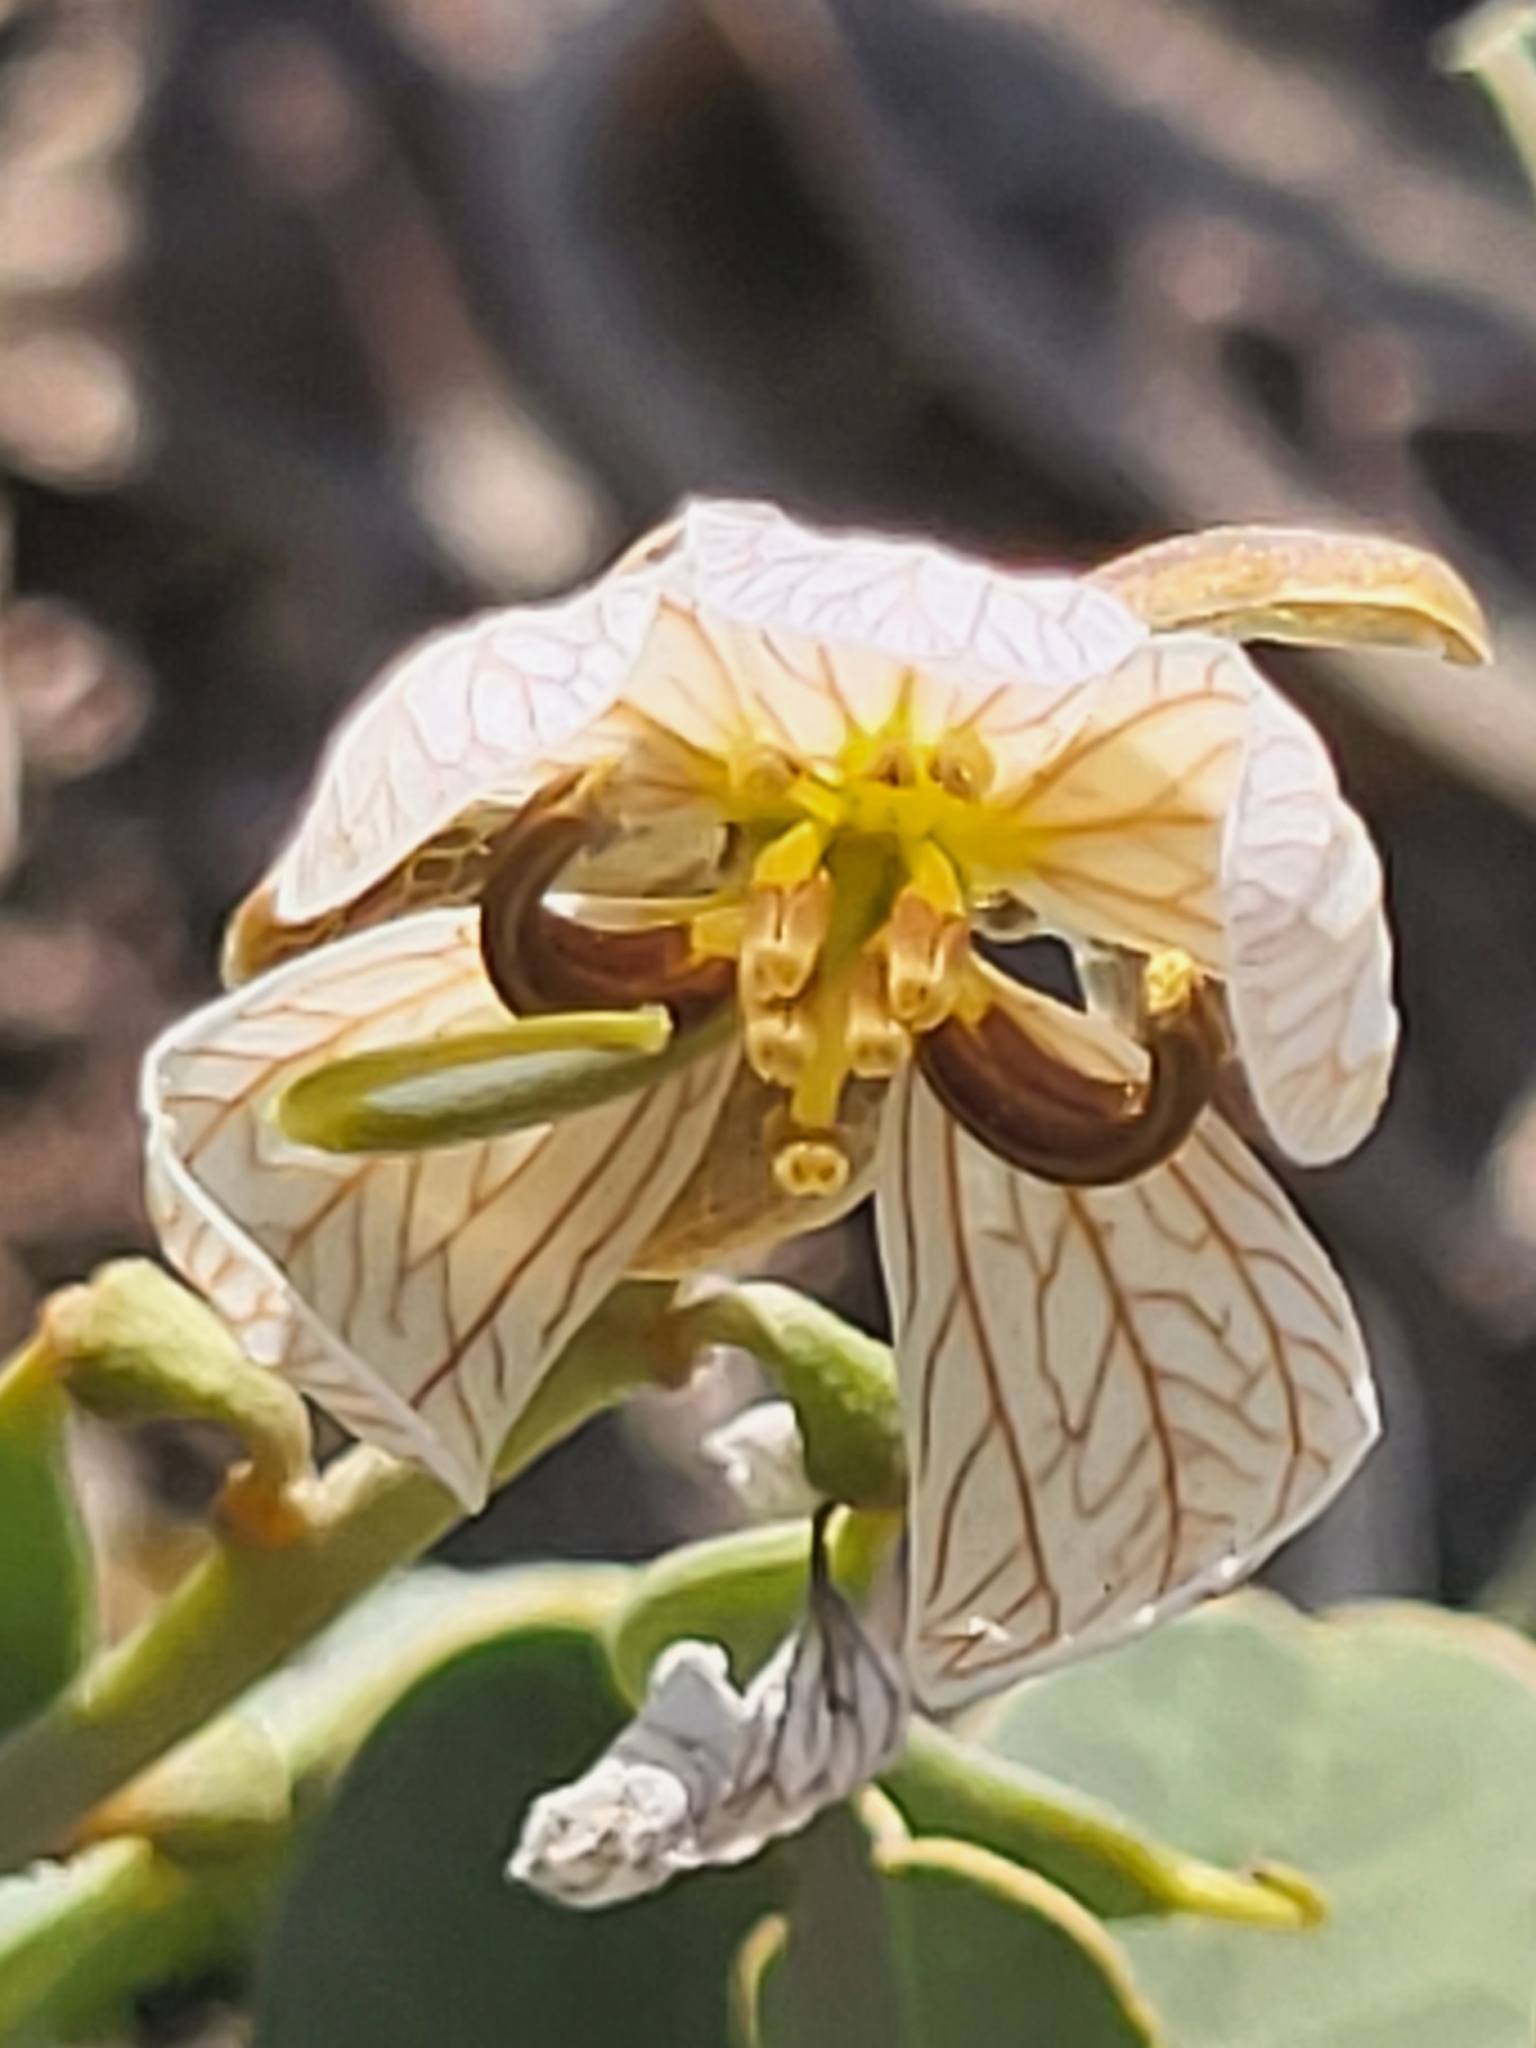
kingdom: Plantae
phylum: Tracheophyta
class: Magnoliopsida
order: Fabales
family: Fabaceae
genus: Senna
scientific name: Senna italica
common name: Port royal senna
